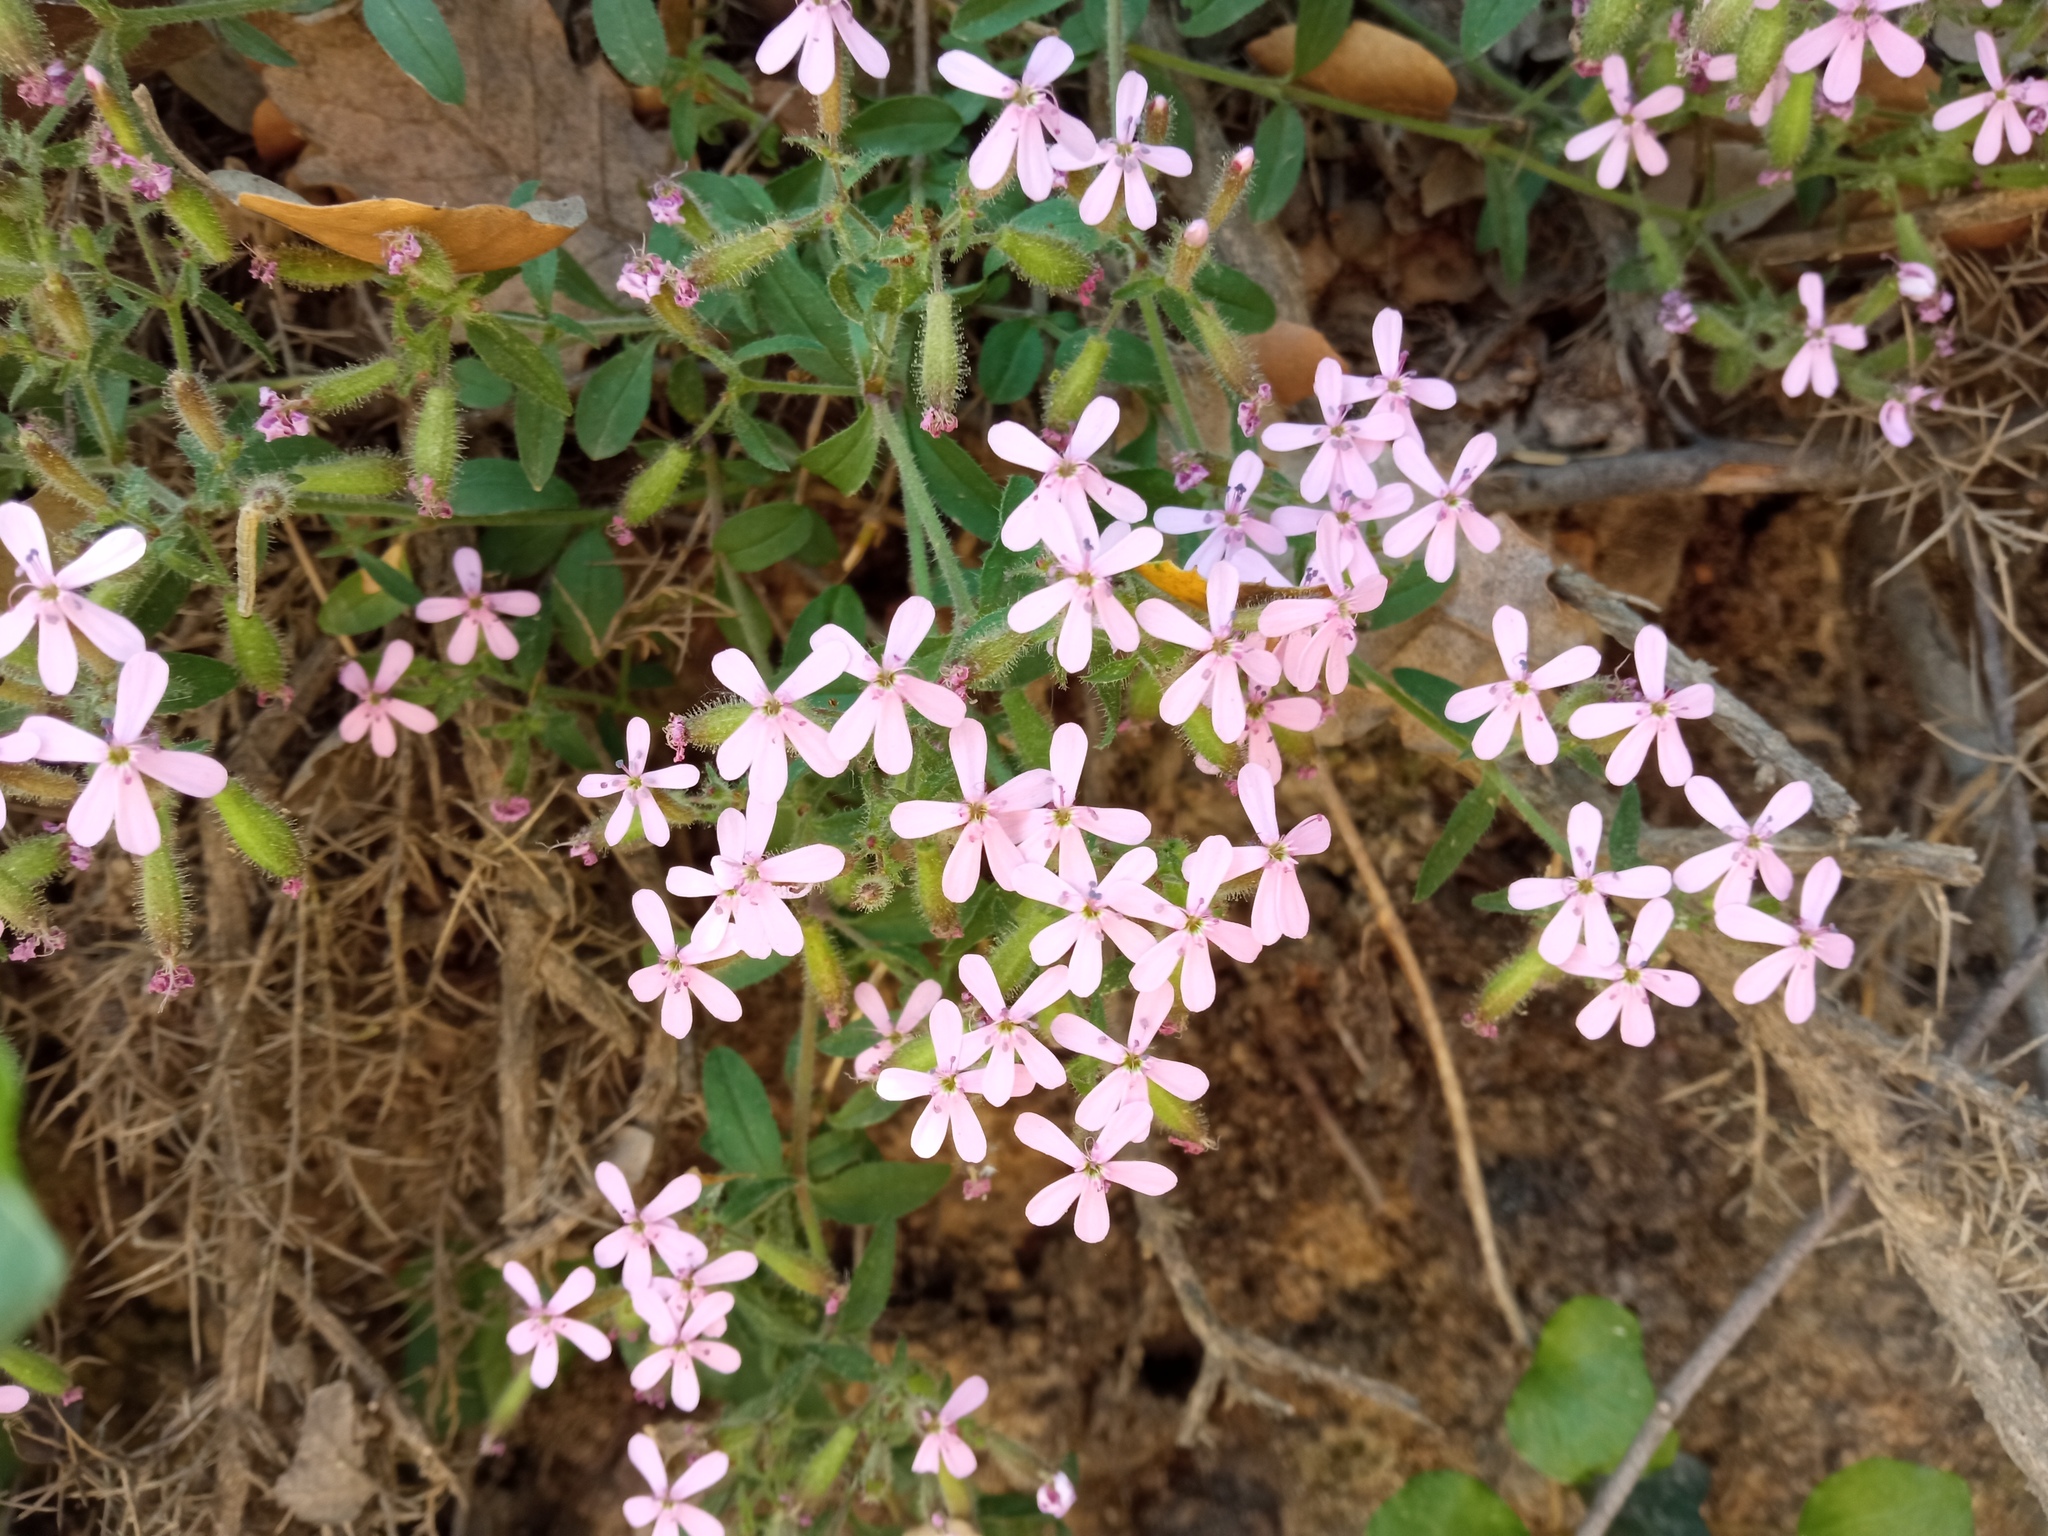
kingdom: Plantae
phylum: Tracheophyta
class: Magnoliopsida
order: Caryophyllales
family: Caryophyllaceae
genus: Saponaria
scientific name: Saponaria ocymoides
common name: Rock soapwort
